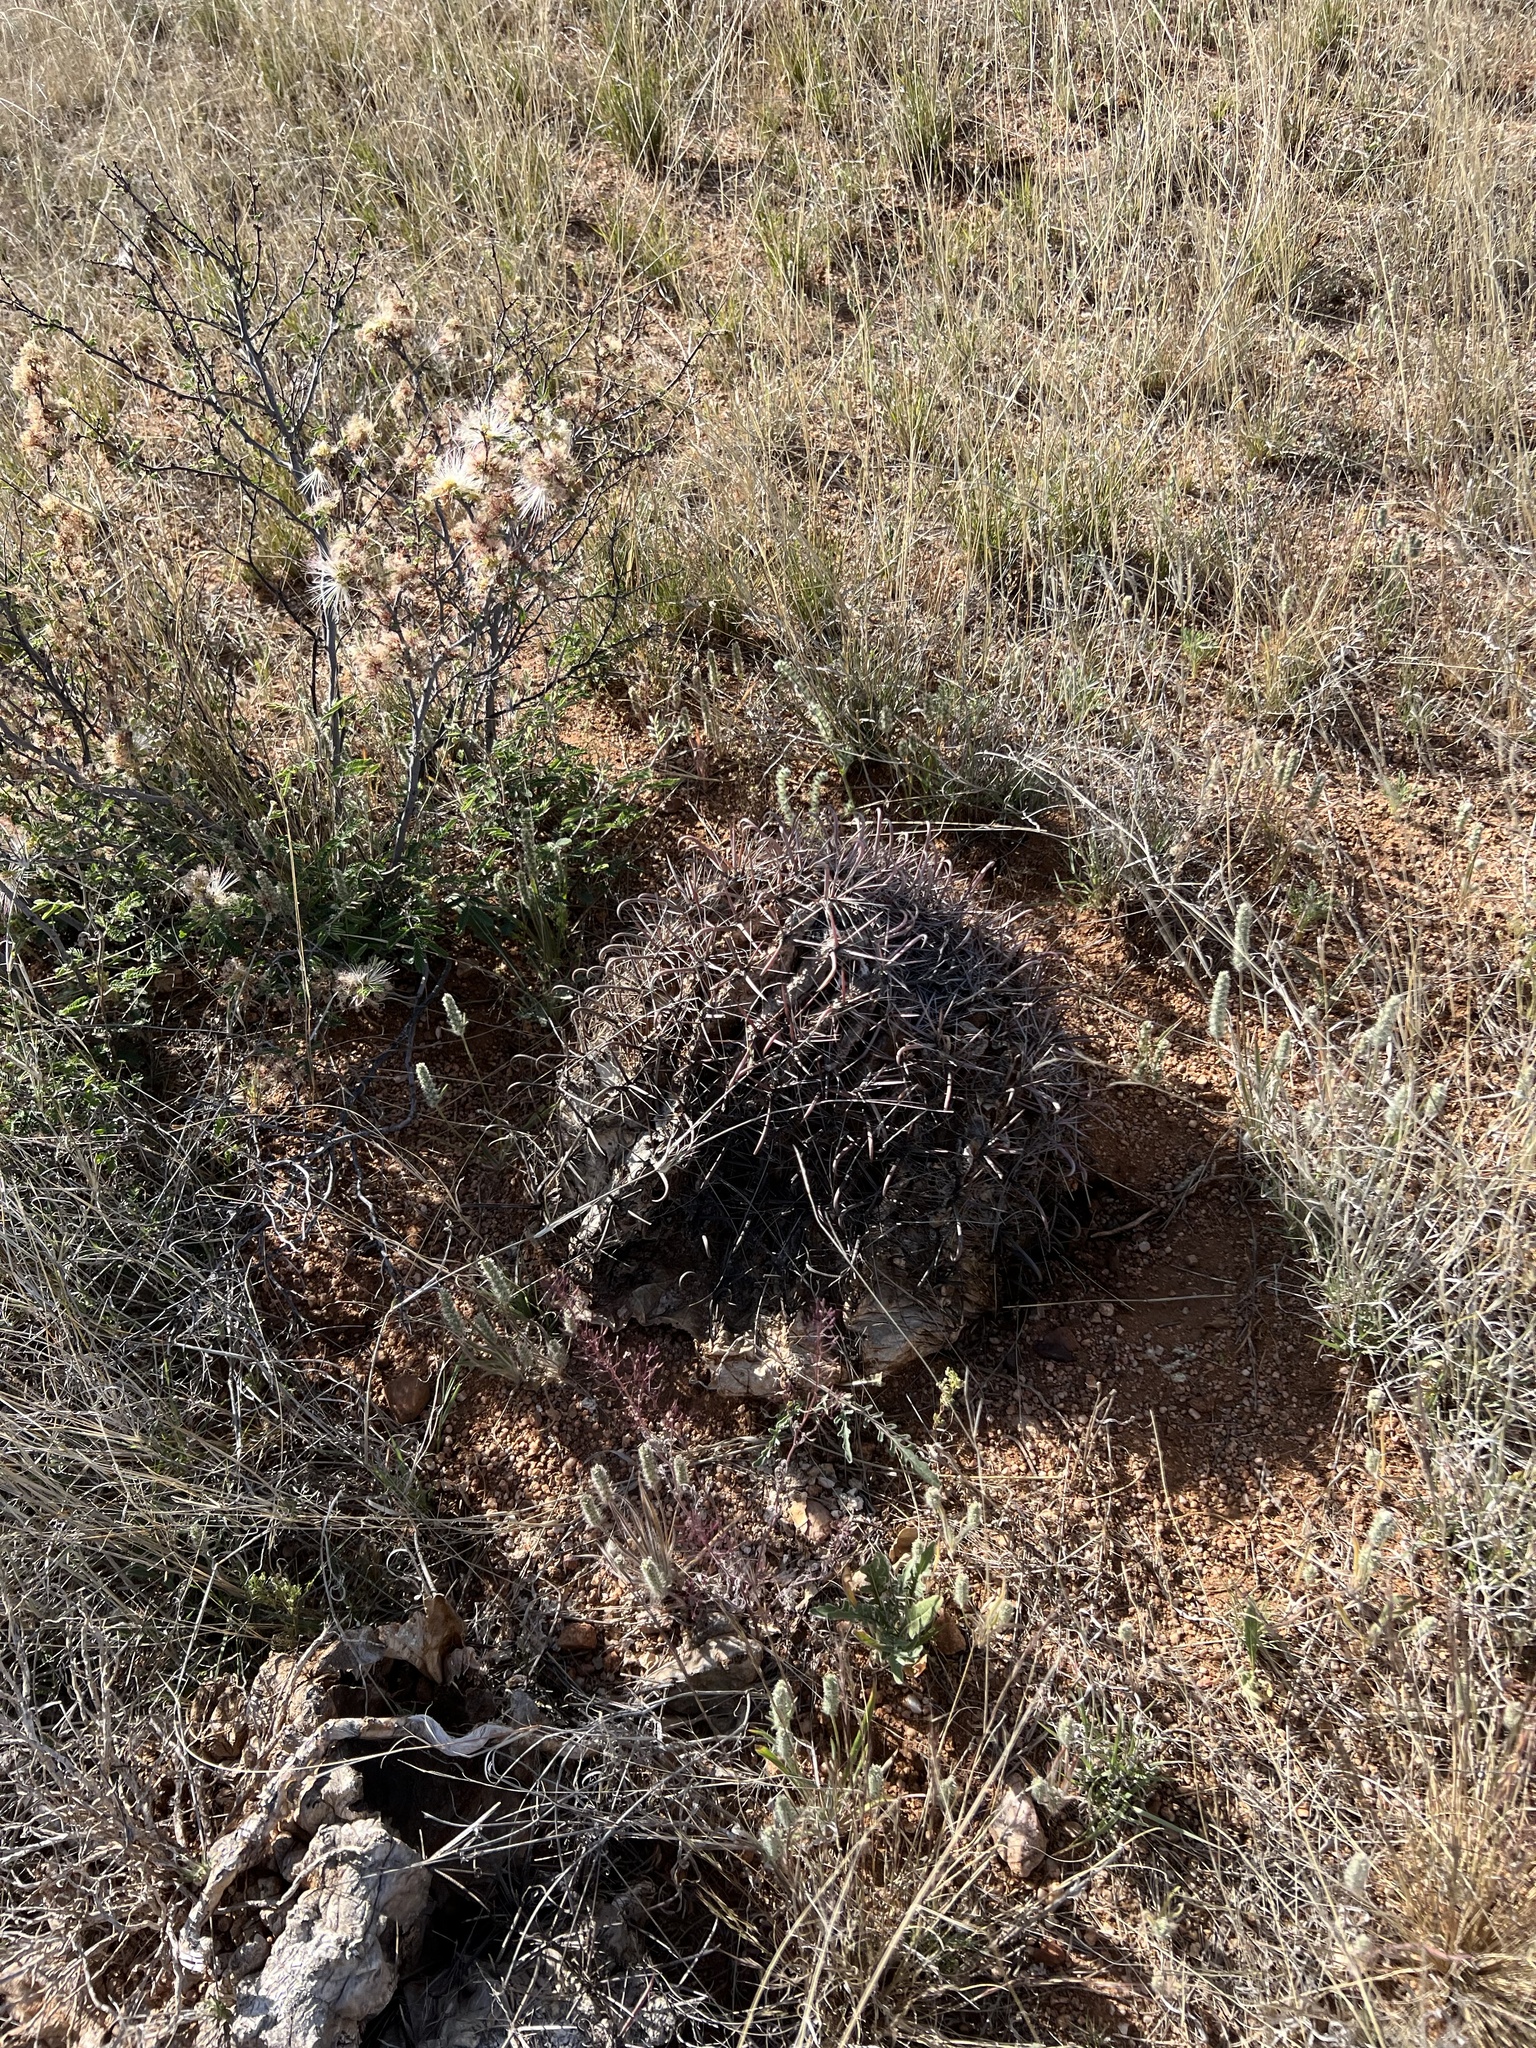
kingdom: Plantae
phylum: Tracheophyta
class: Magnoliopsida
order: Caryophyllales
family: Cactaceae
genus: Ferocactus
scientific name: Ferocactus wislizeni
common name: Candy barrel cactus
